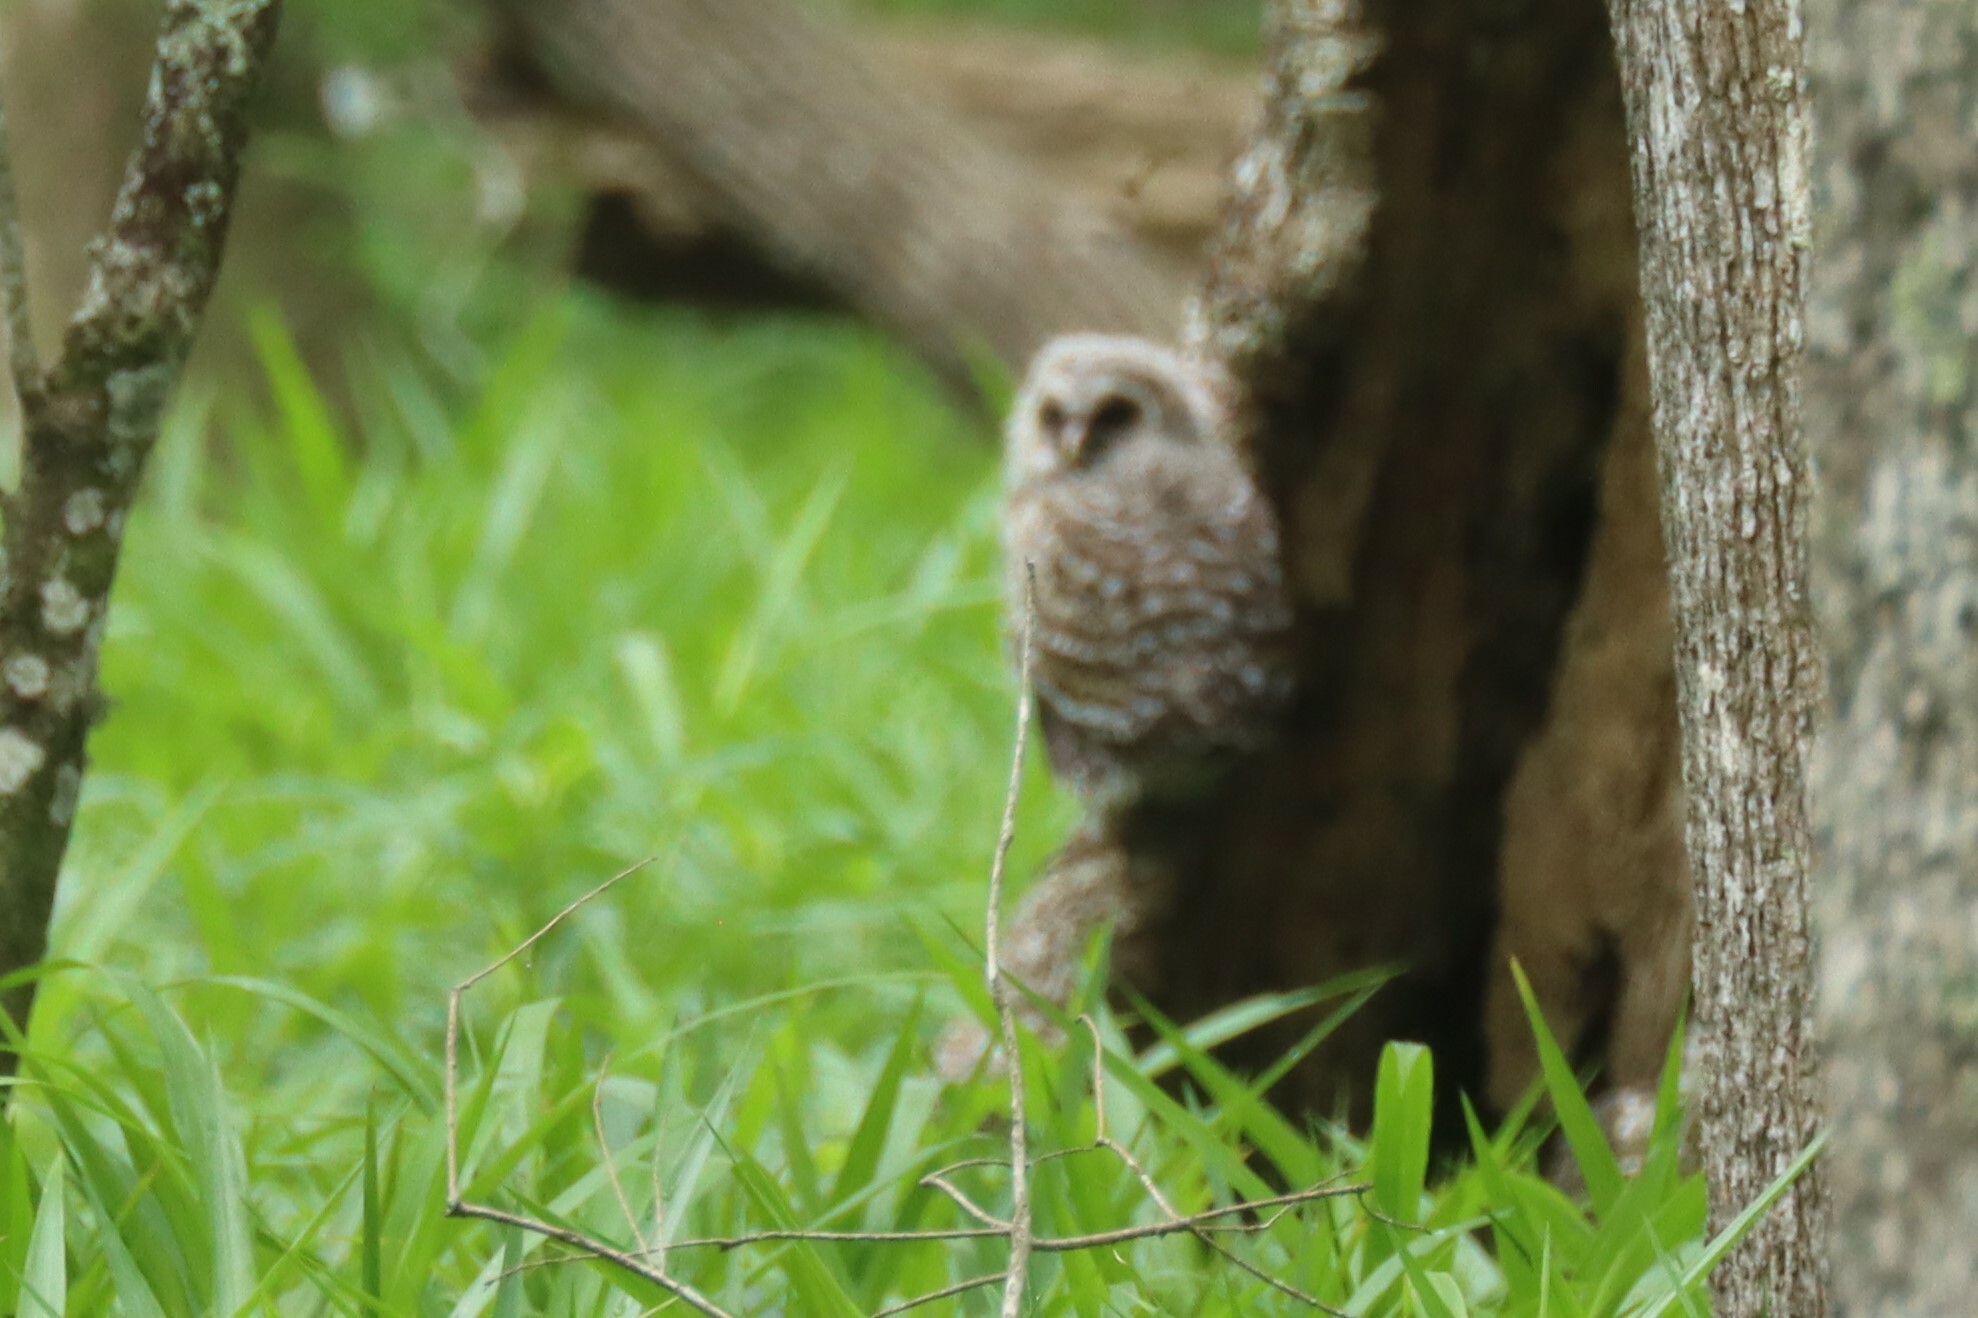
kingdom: Animalia
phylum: Chordata
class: Aves
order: Strigiformes
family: Strigidae
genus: Strix
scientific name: Strix varia
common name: Barred owl
